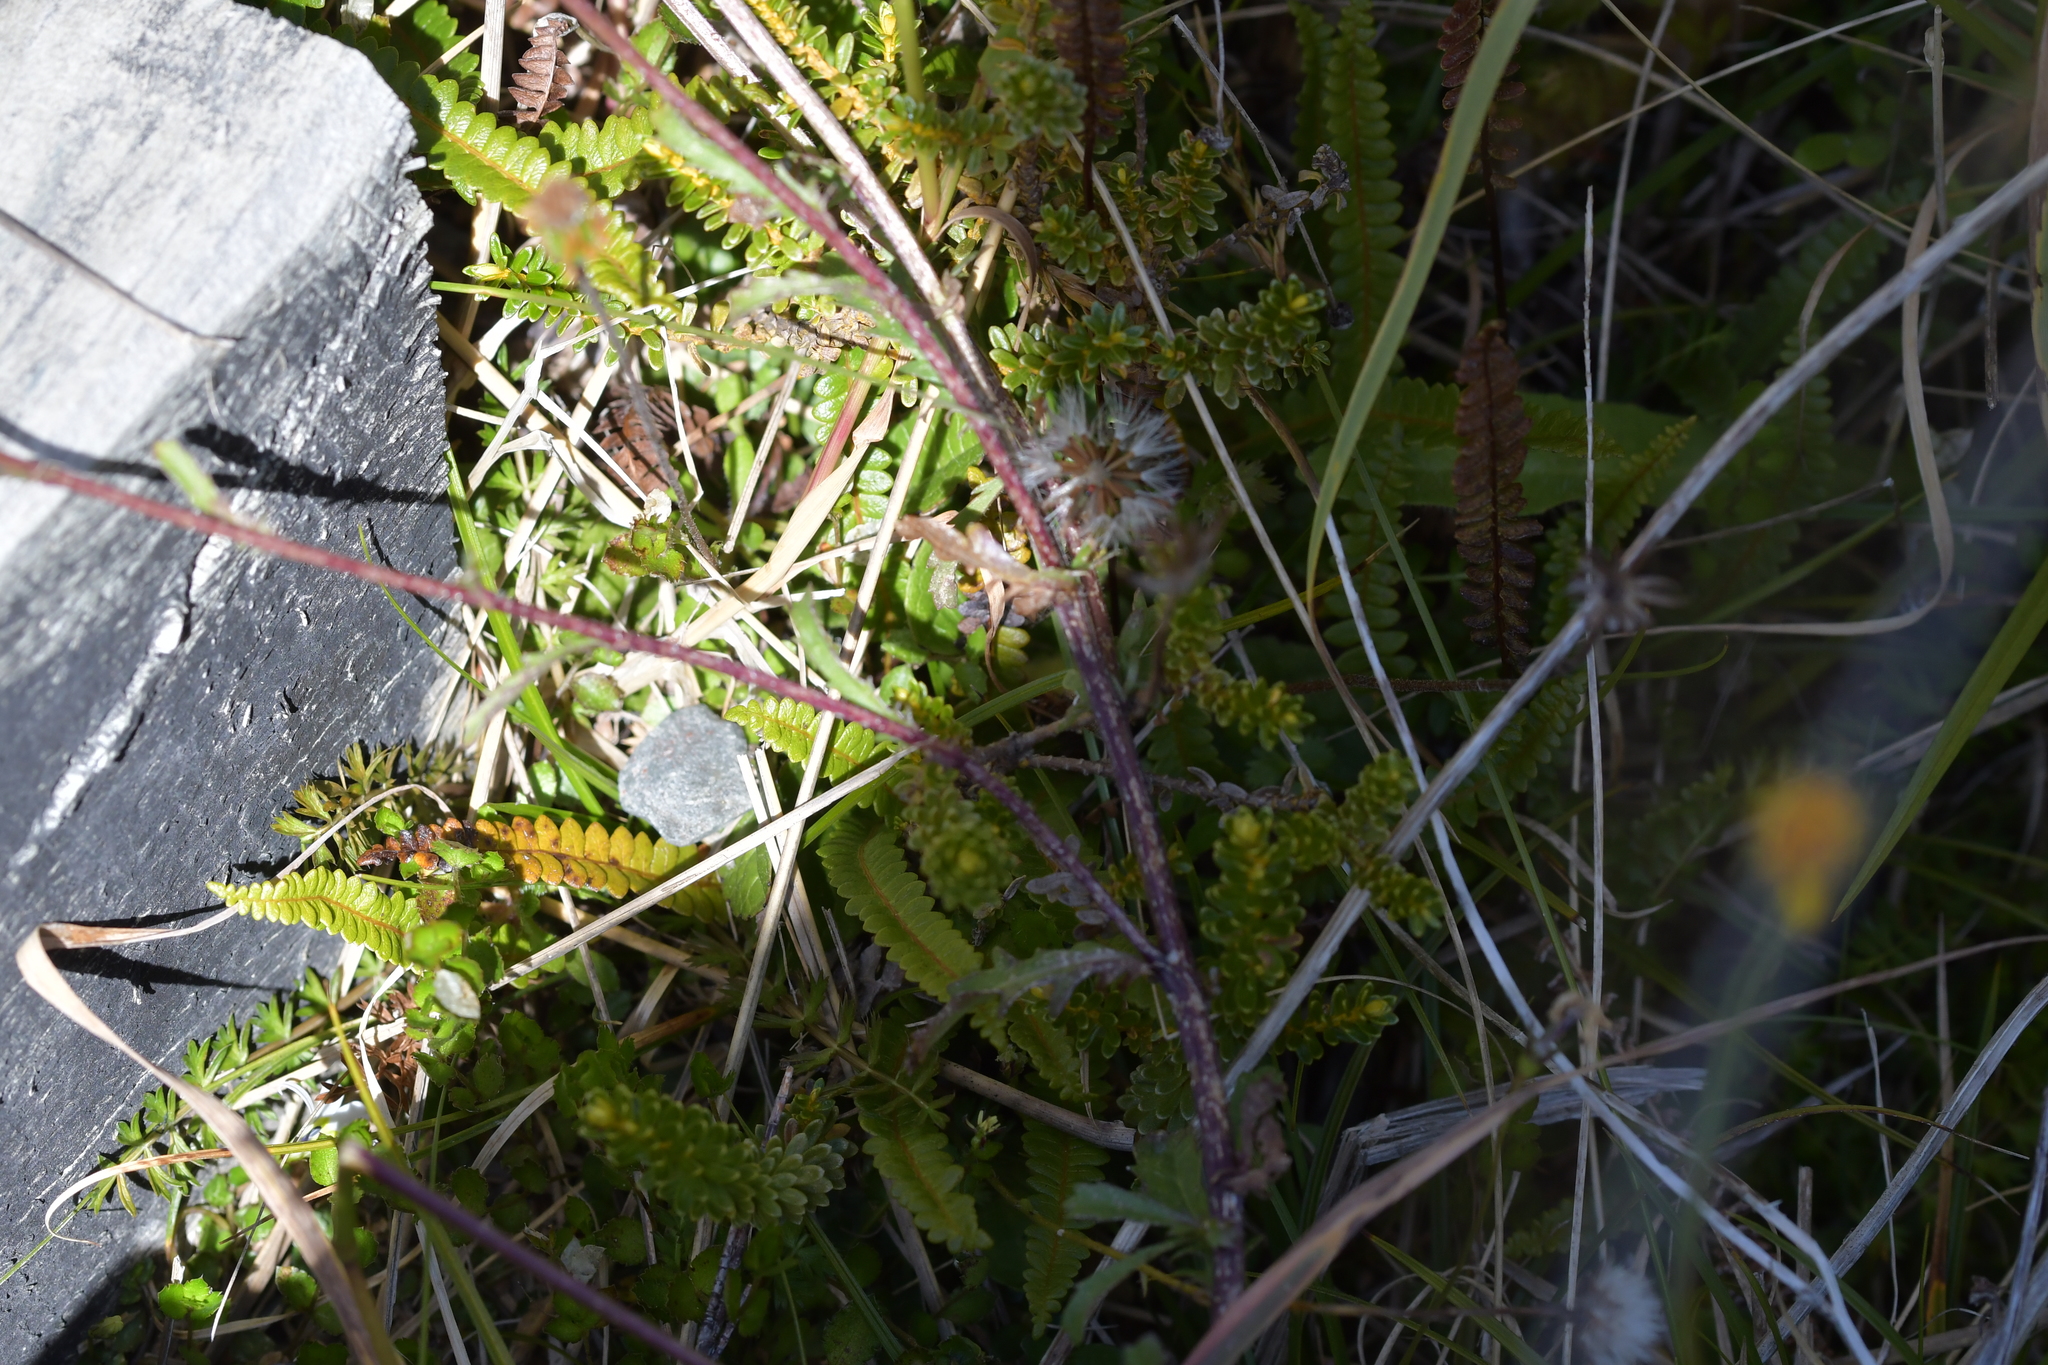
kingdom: Plantae
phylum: Tracheophyta
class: Magnoliopsida
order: Asterales
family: Asteraceae
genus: Leucanthemum
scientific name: Leucanthemum vulgare
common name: Oxeye daisy
